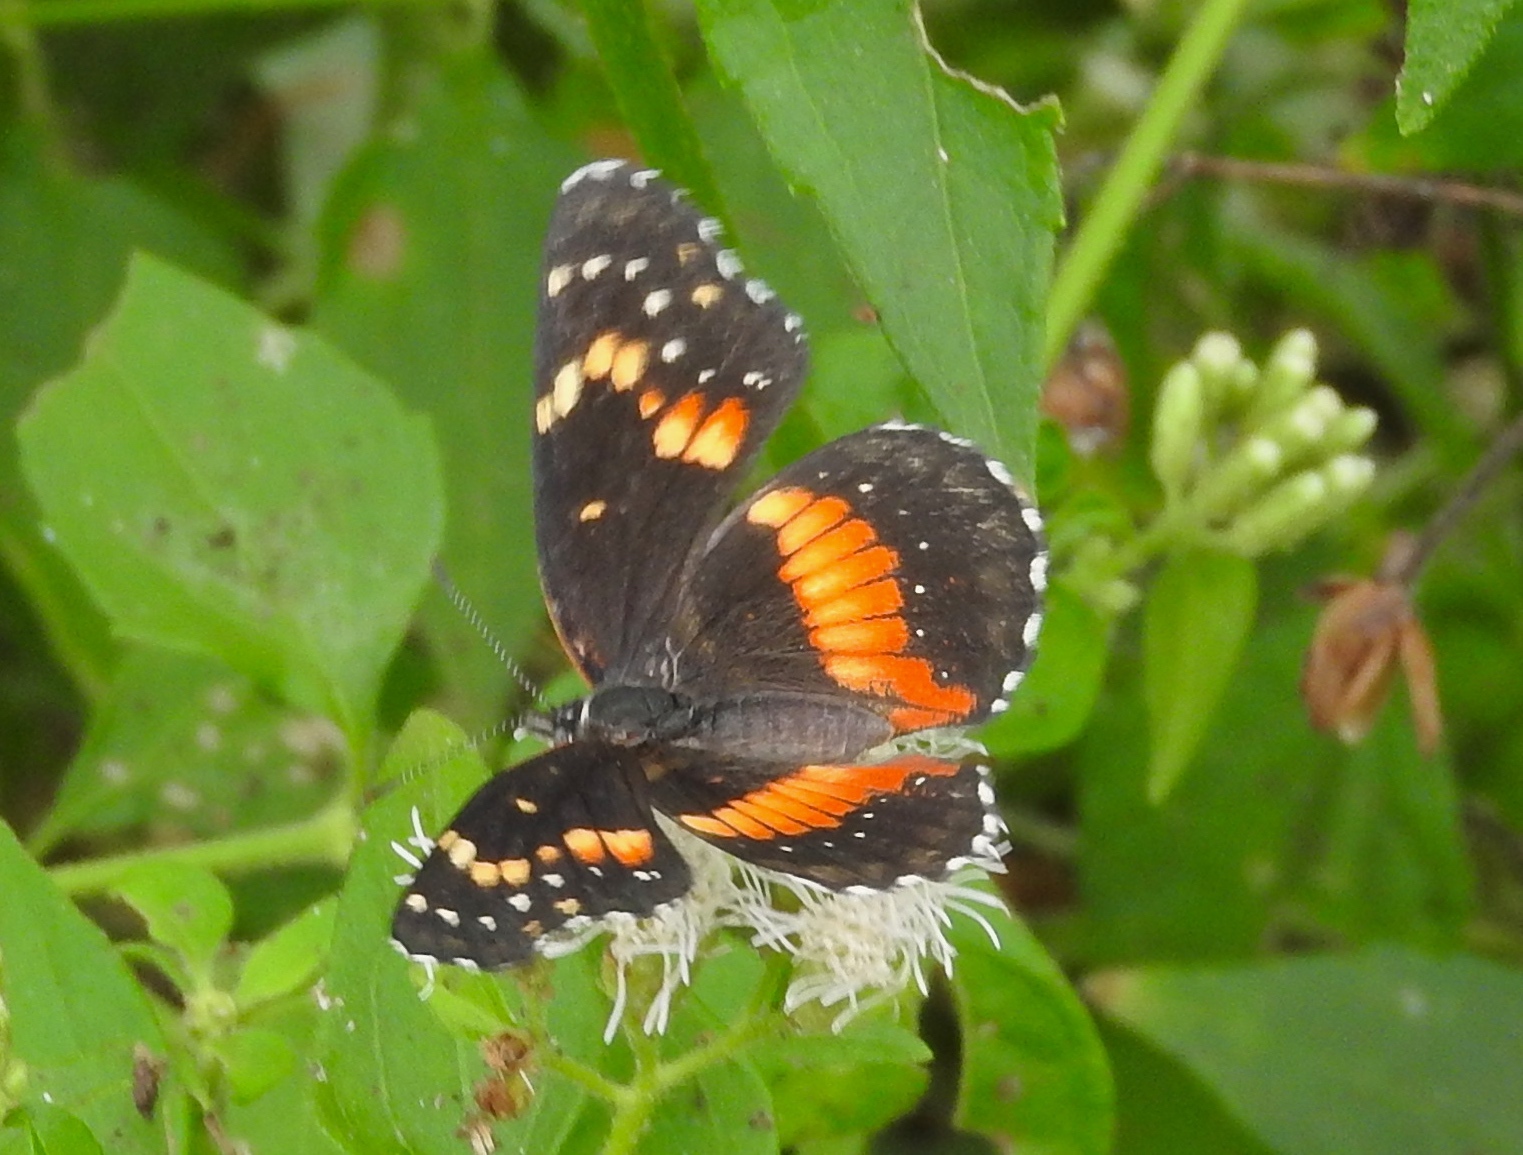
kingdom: Animalia
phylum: Arthropoda
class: Insecta
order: Lepidoptera
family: Nymphalidae
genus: Chlosyne
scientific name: Chlosyne lacinia
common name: Bordered patch
